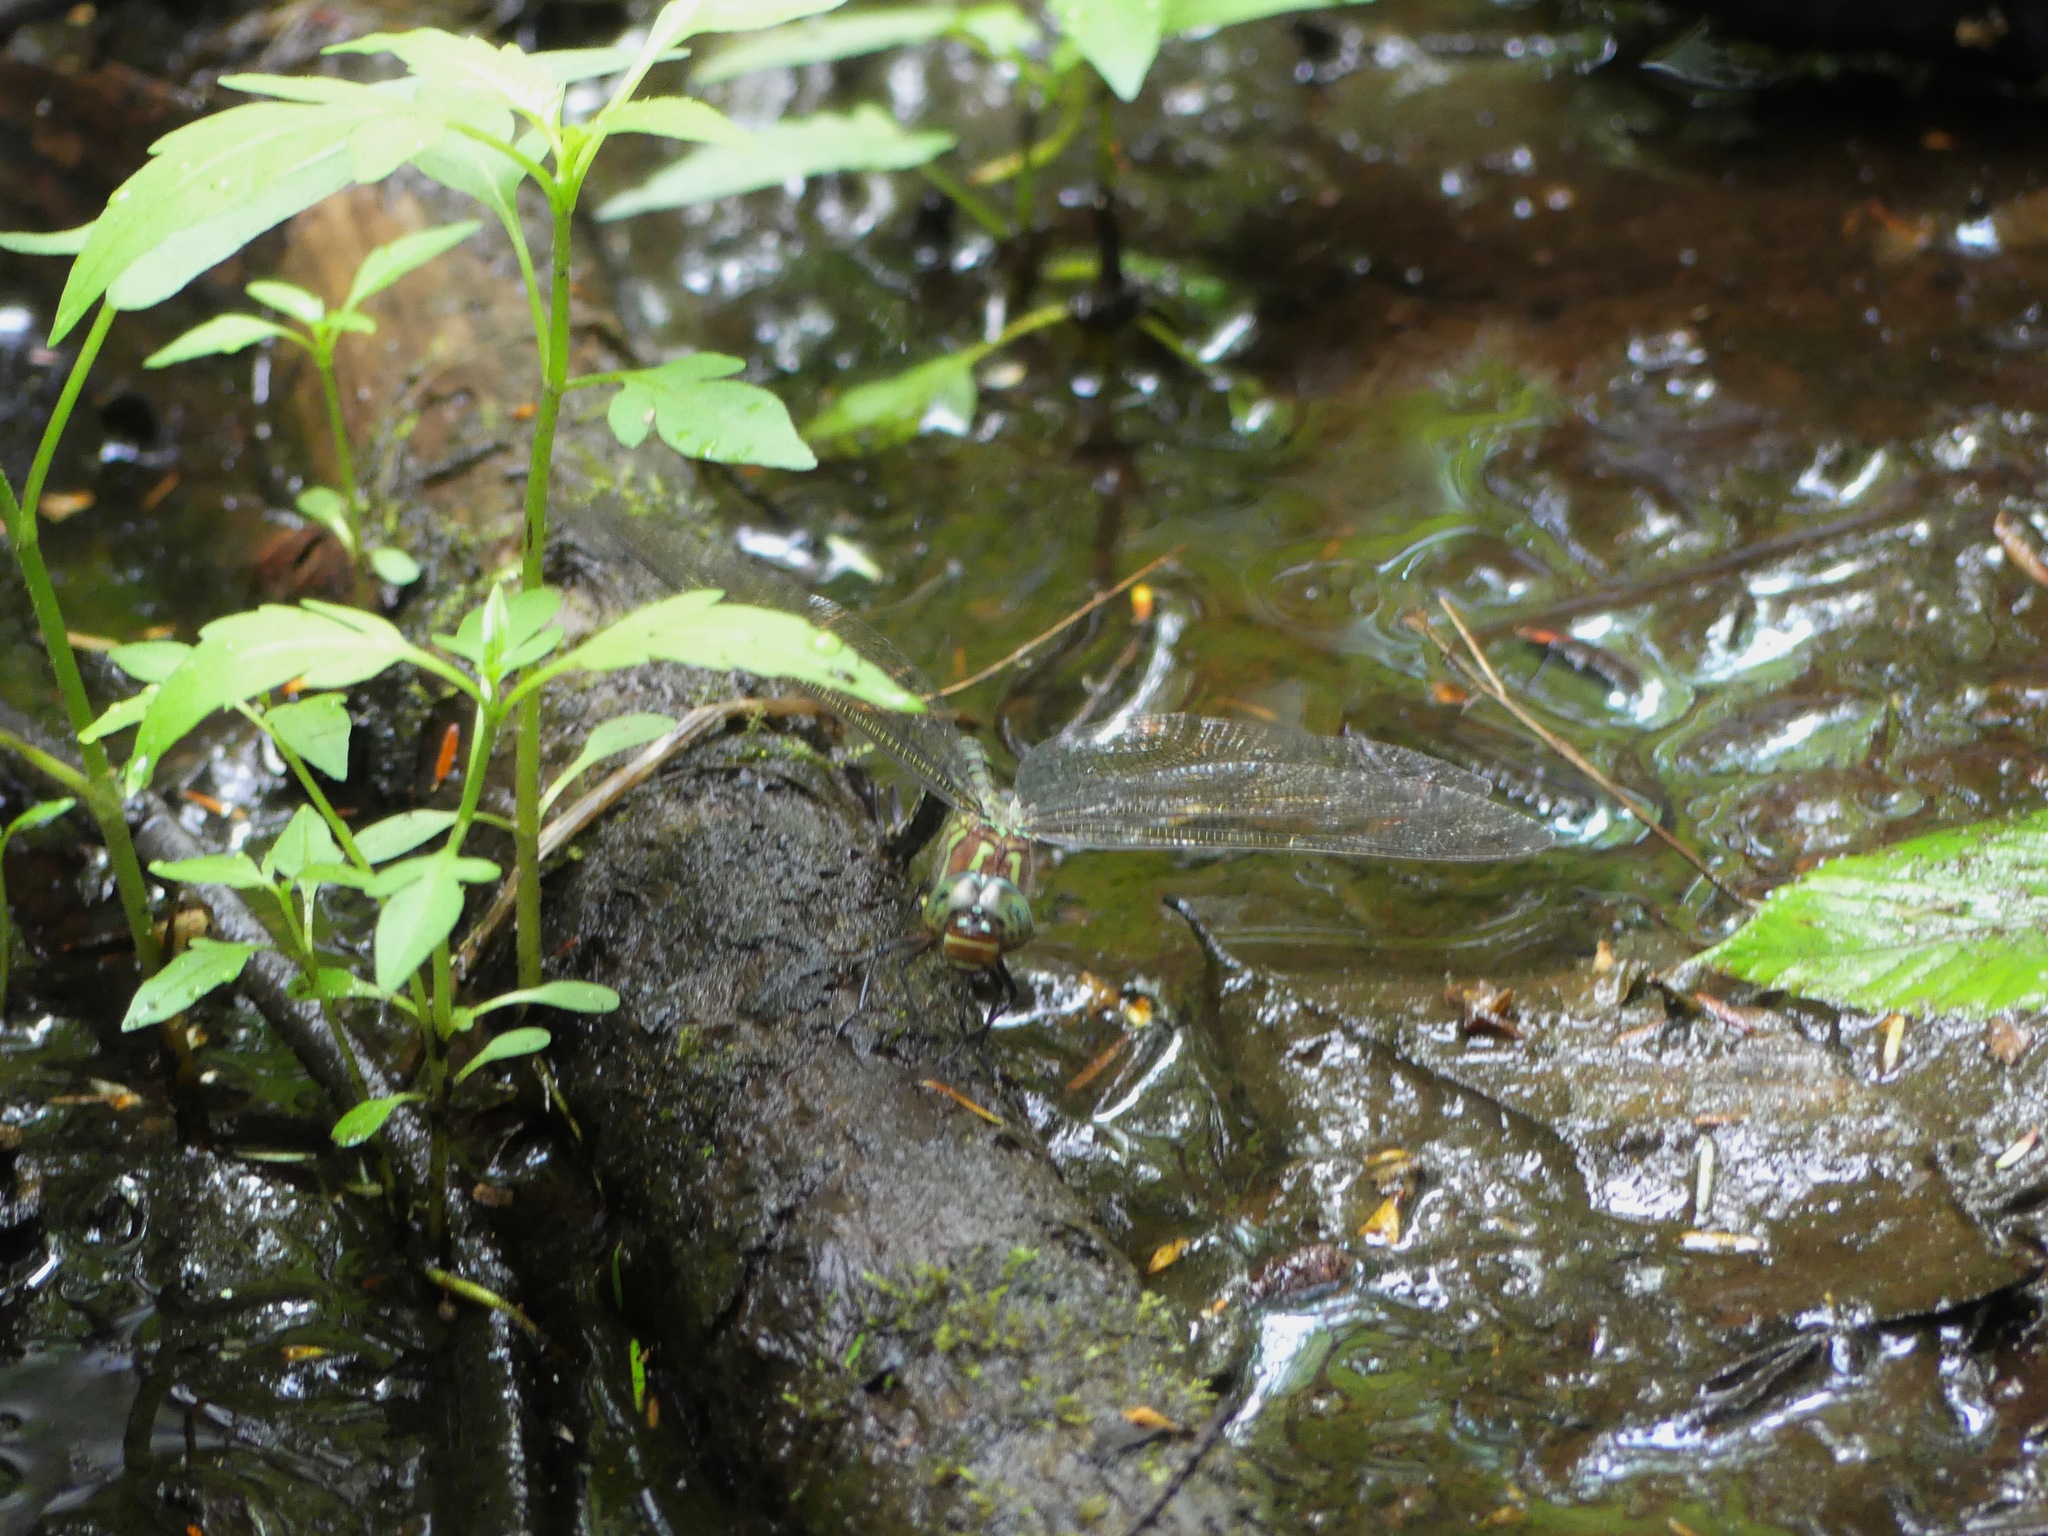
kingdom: Animalia
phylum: Arthropoda
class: Insecta
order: Odonata
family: Aeshnidae
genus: Epiaeschna
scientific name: Epiaeschna heros
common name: Swamp darner
